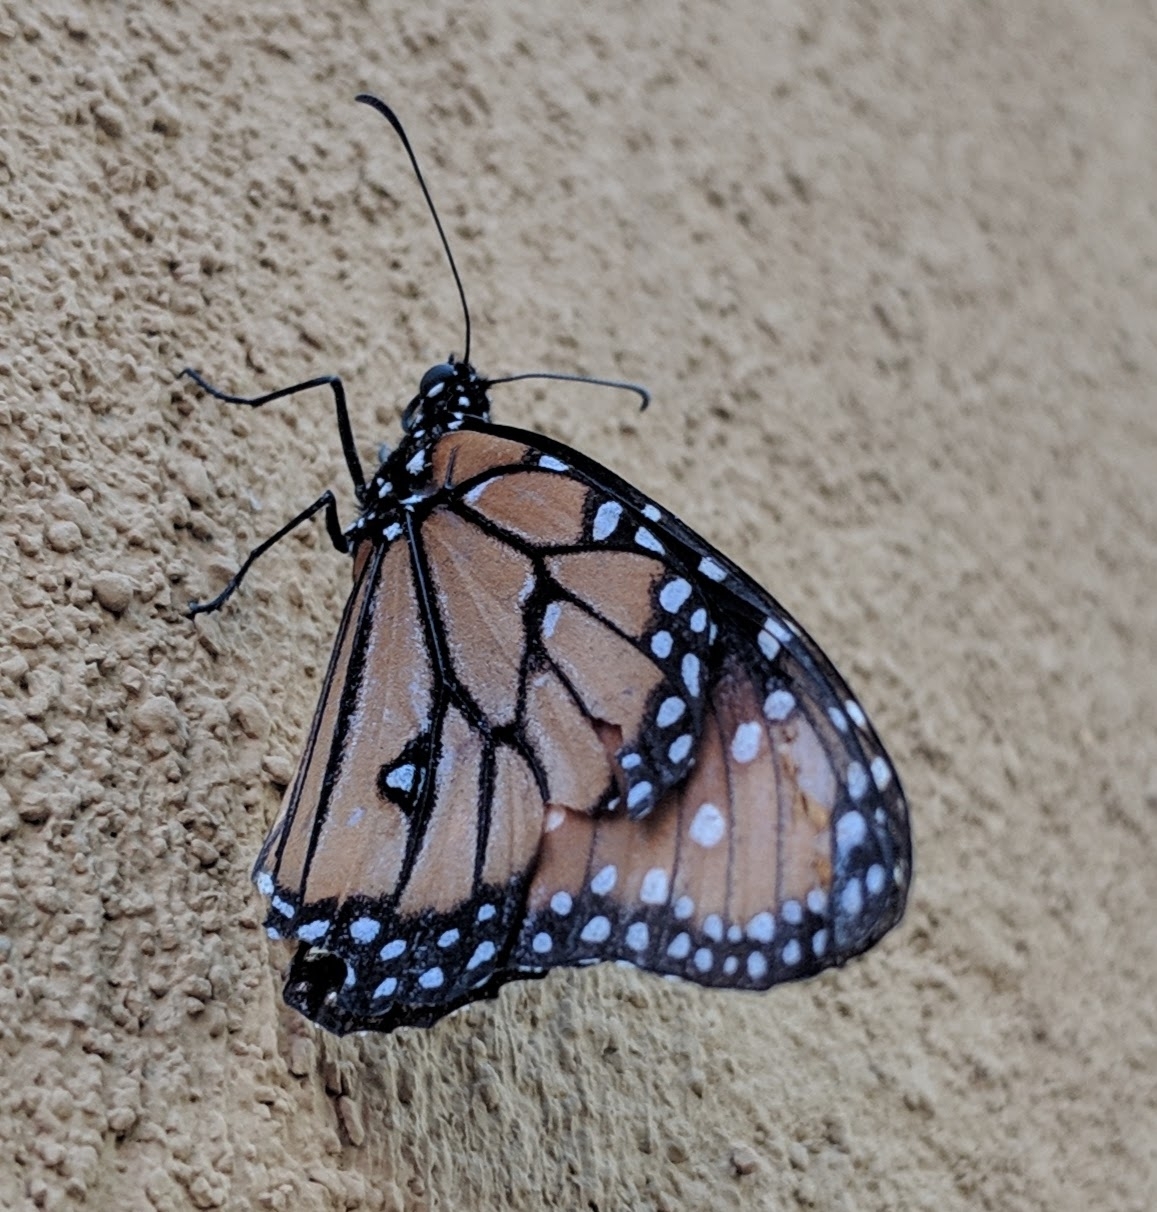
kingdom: Animalia
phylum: Arthropoda
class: Insecta
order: Lepidoptera
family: Nymphalidae
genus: Danaus
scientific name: Danaus gilippus
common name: Queen
